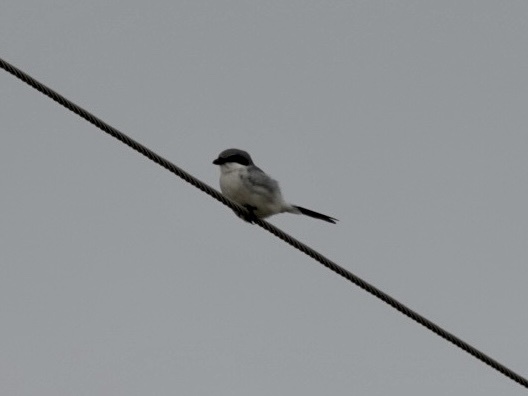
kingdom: Animalia
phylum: Chordata
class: Aves
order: Passeriformes
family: Laniidae
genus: Lanius
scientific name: Lanius ludovicianus
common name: Loggerhead shrike
